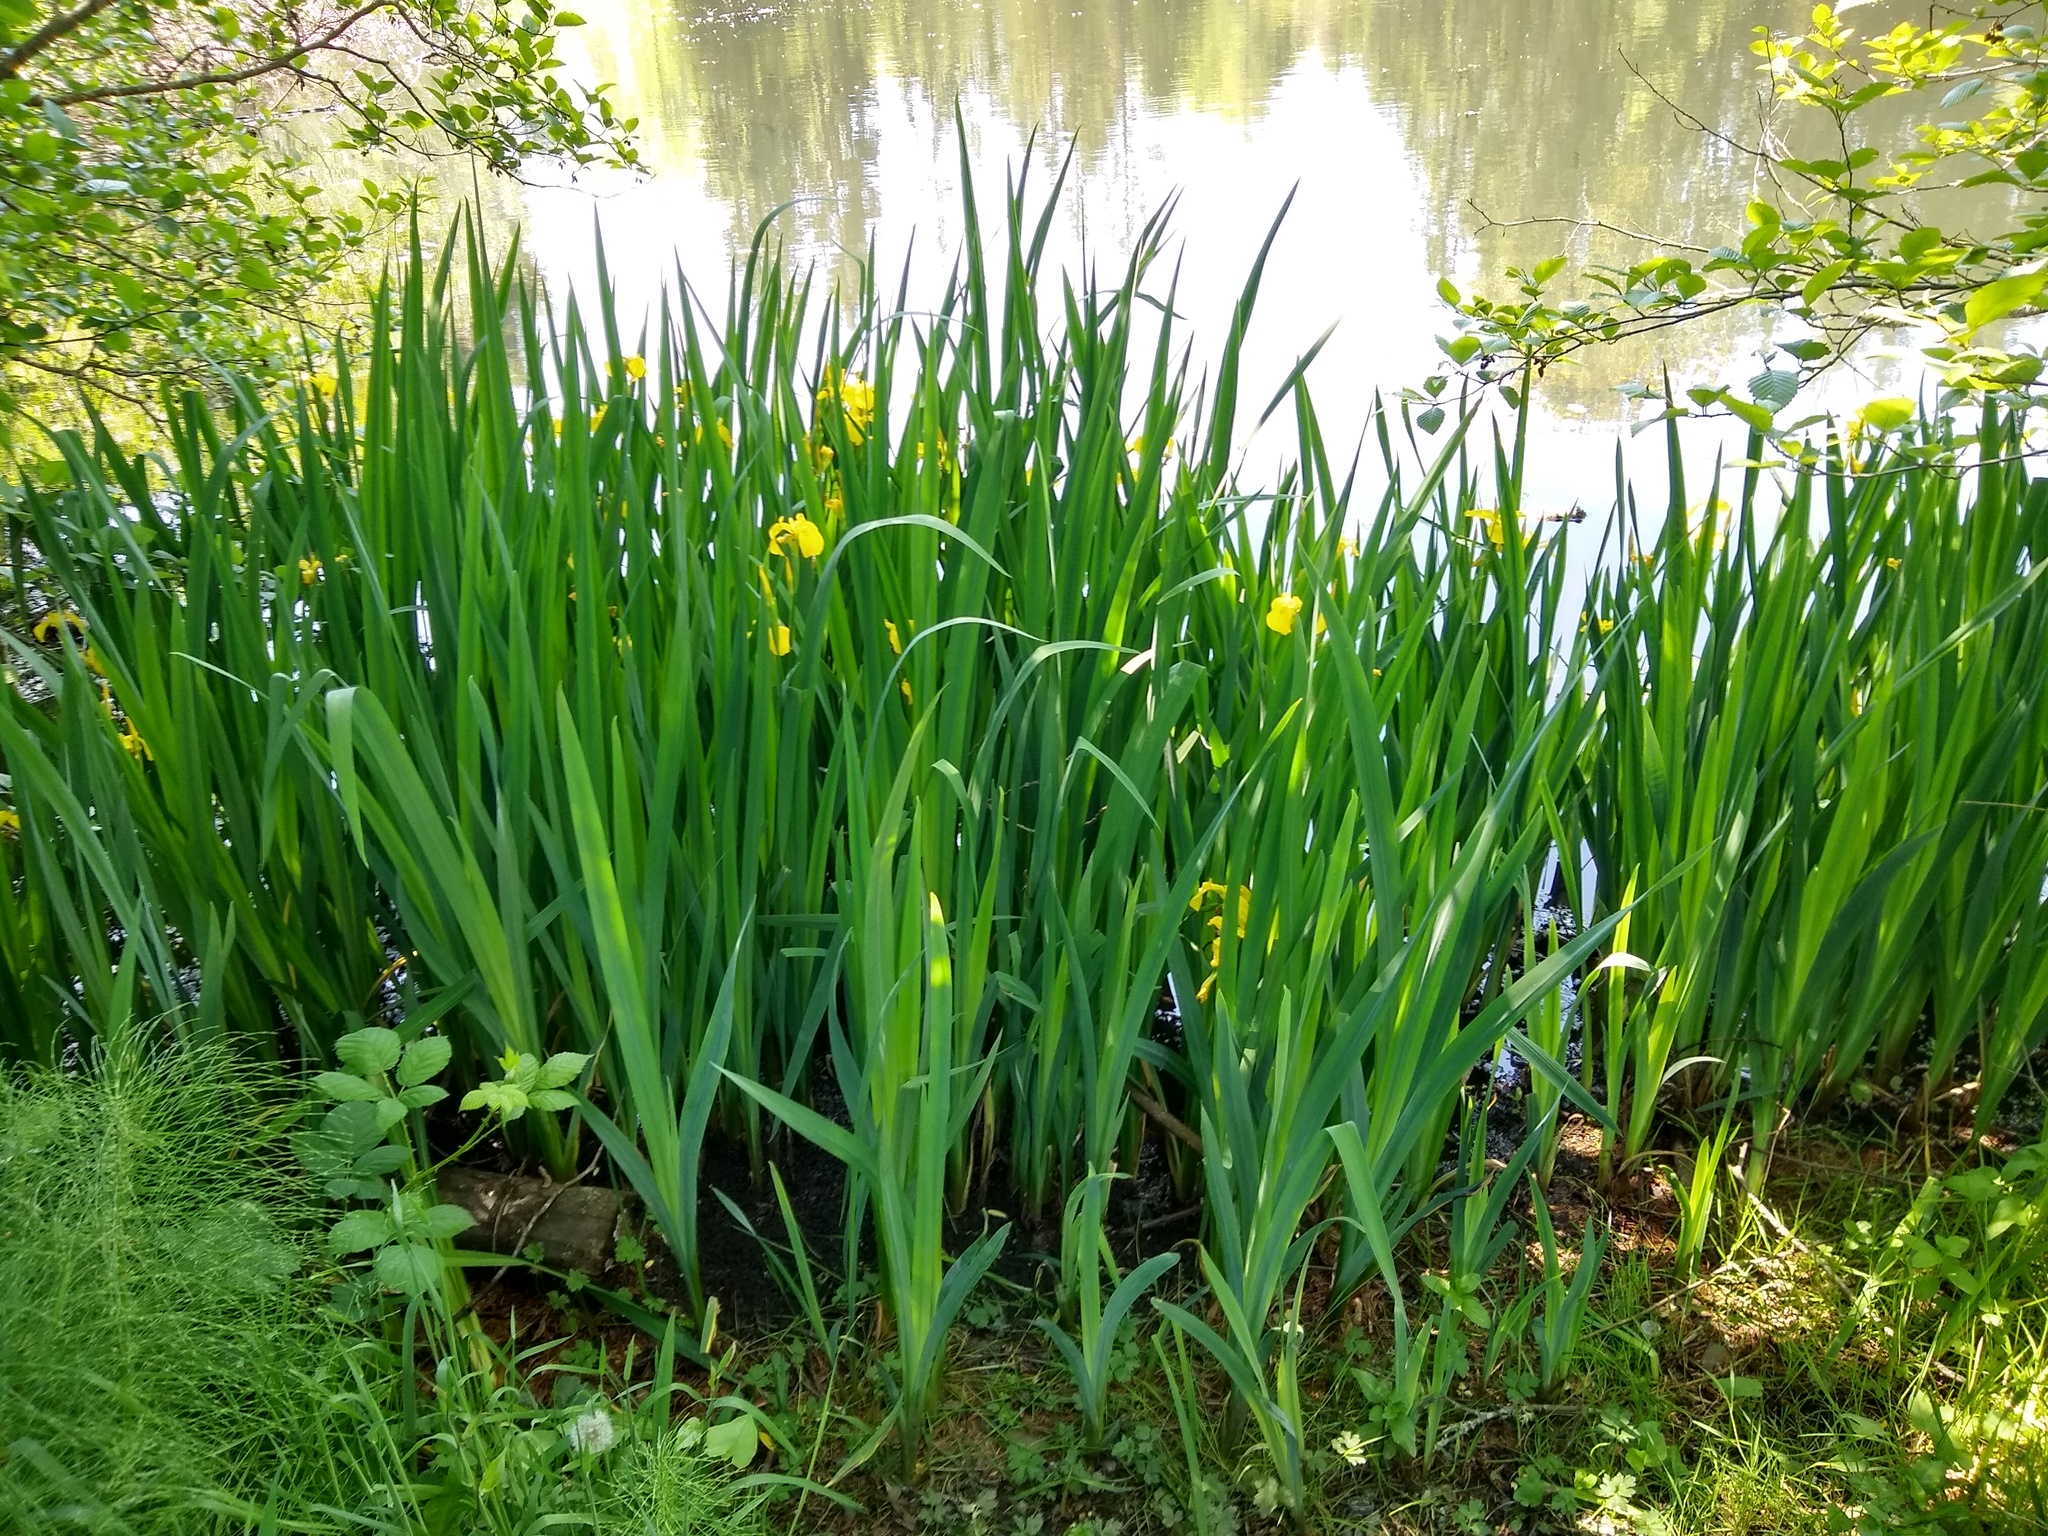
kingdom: Plantae
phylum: Tracheophyta
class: Liliopsida
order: Asparagales
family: Iridaceae
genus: Iris
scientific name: Iris pseudacorus
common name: Yellow flag
